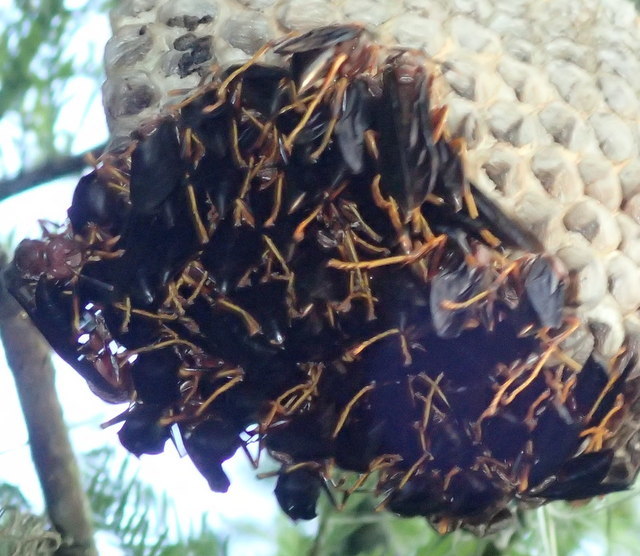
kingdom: Animalia
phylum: Arthropoda
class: Insecta
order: Hymenoptera
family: Eumenidae
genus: Polistes
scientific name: Polistes annularis
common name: Ringed paper wasp
